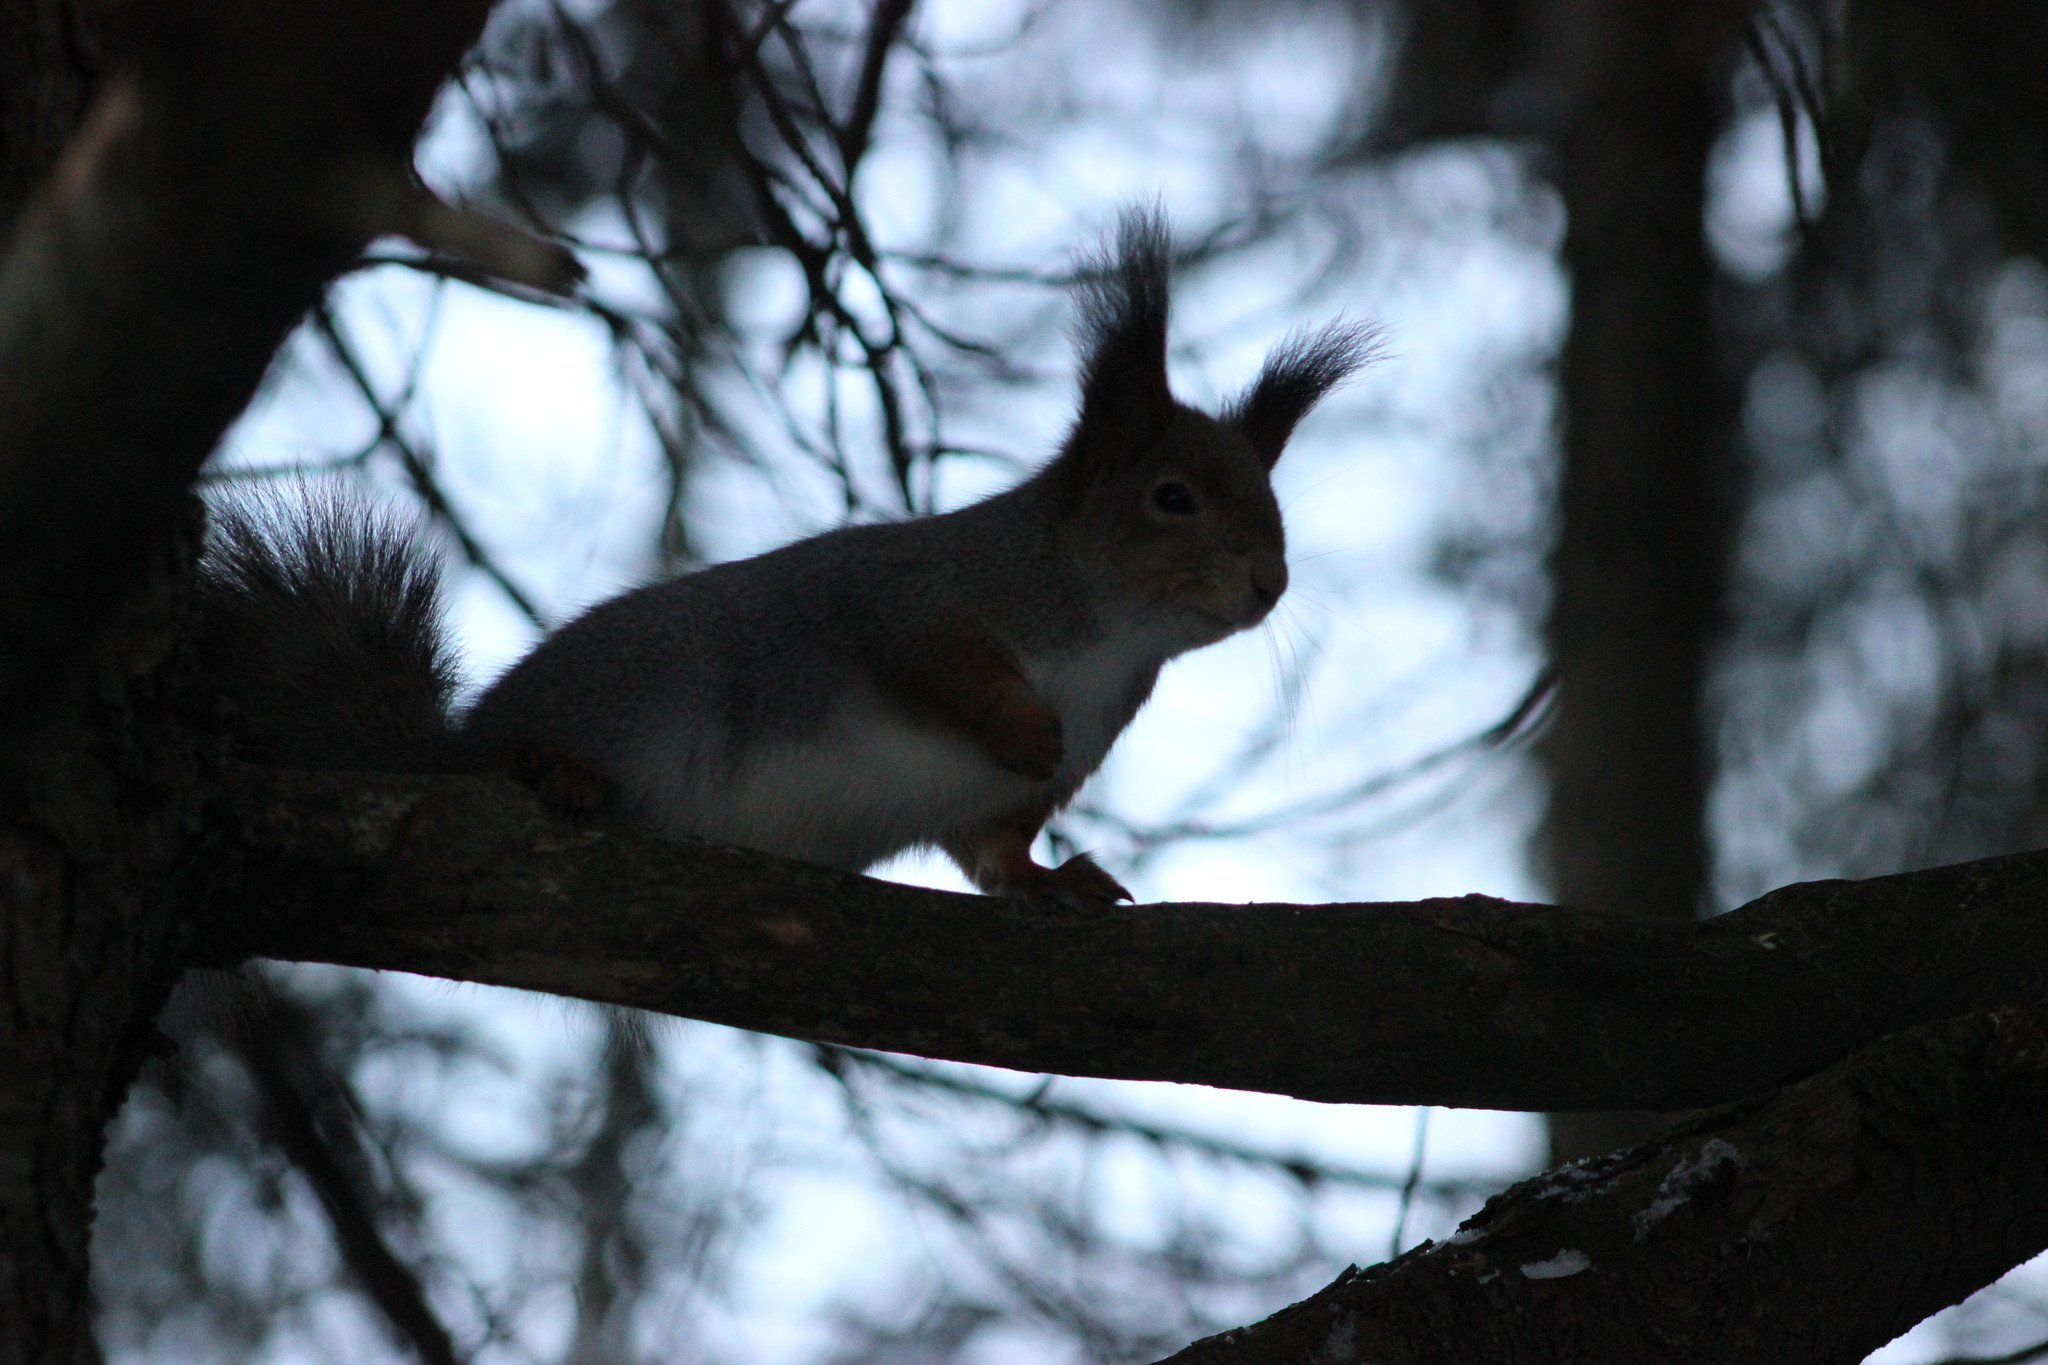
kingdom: Animalia
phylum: Chordata
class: Mammalia
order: Rodentia
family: Sciuridae
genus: Sciurus
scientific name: Sciurus vulgaris
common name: Eurasian red squirrel
